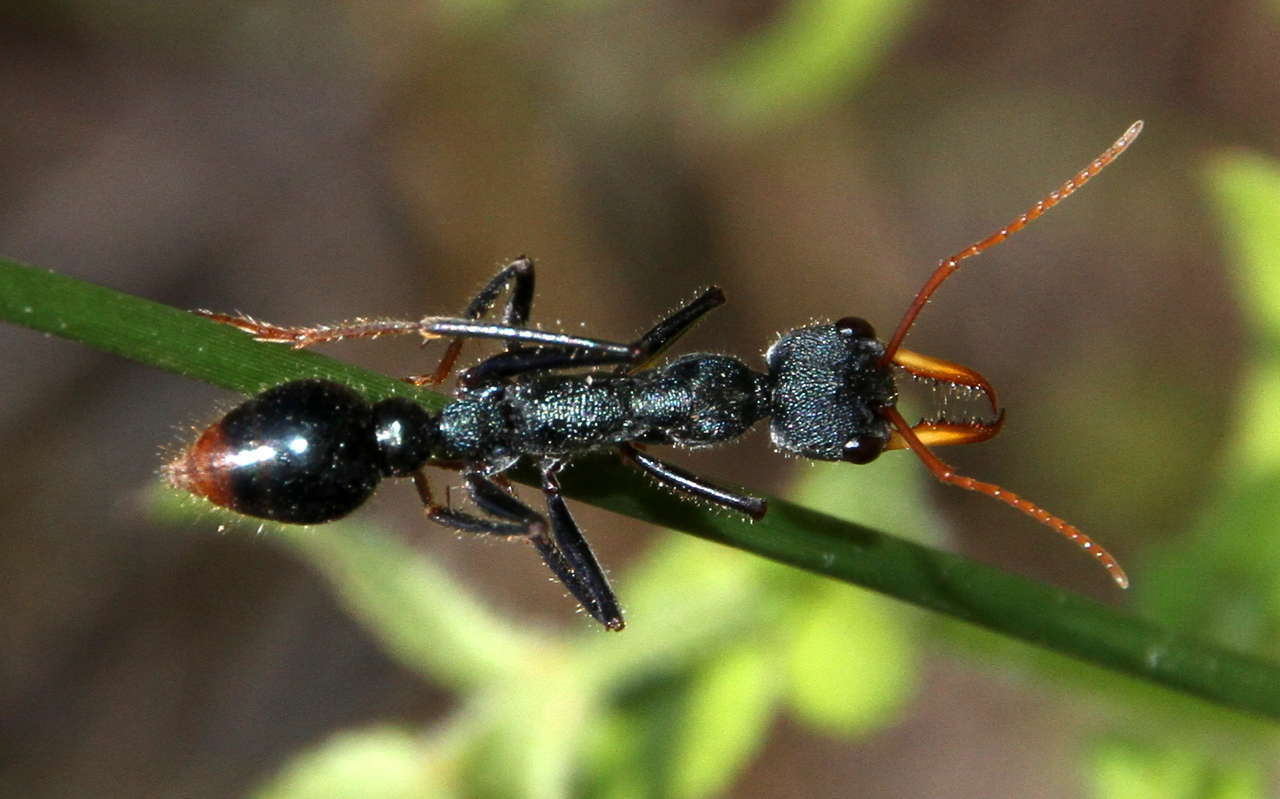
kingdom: Animalia
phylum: Arthropoda
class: Insecta
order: Hymenoptera
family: Formicidae
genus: Myrmecia
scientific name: Myrmecia tarsata
